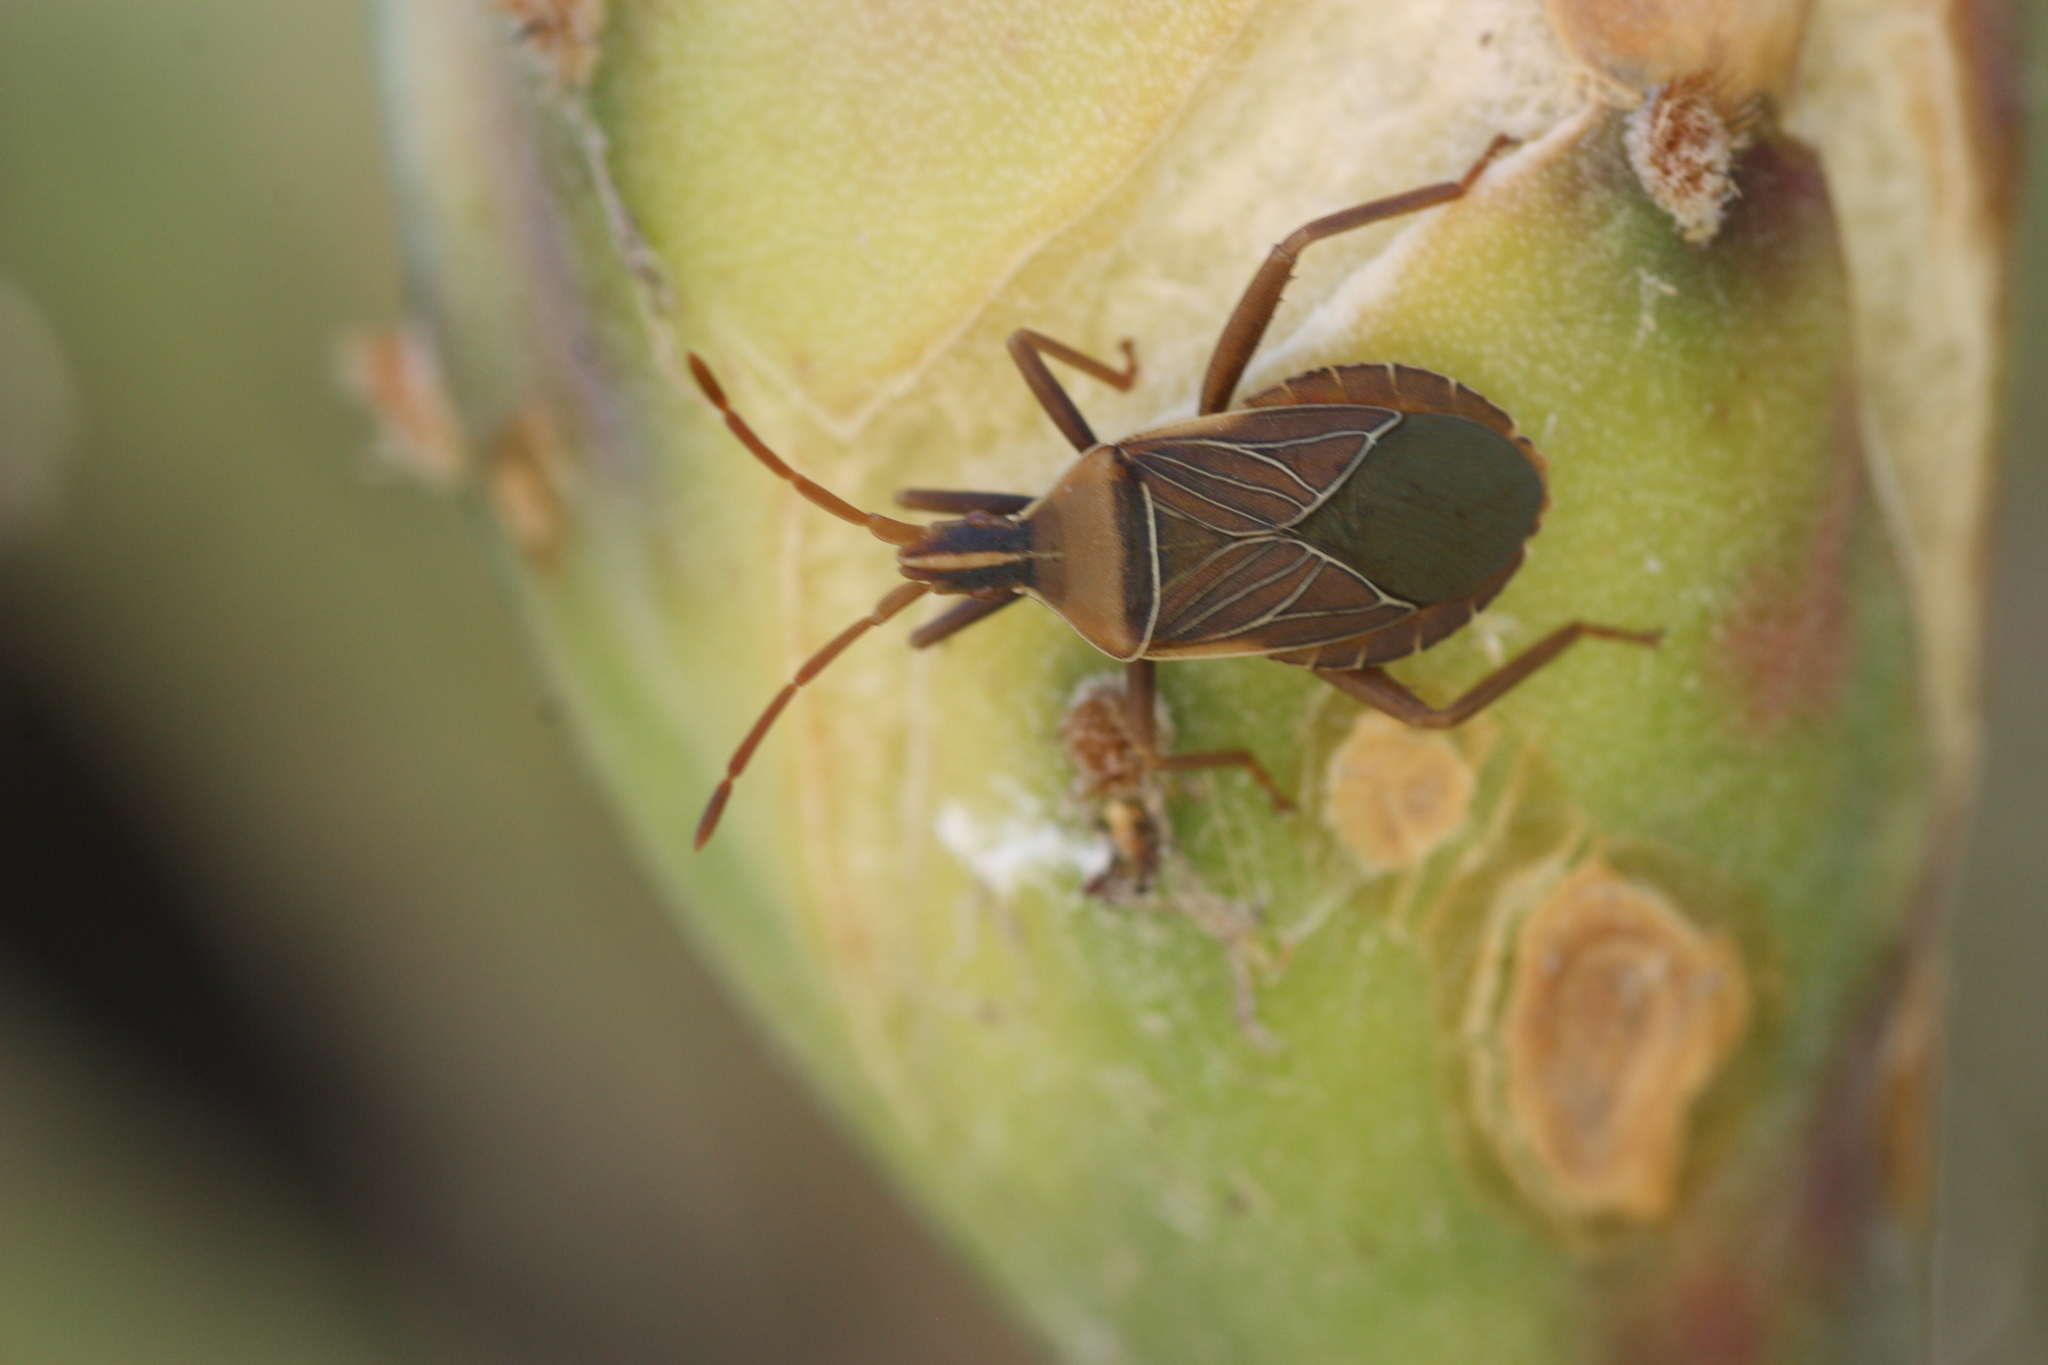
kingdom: Animalia
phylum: Arthropoda
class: Insecta
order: Hemiptera
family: Coreidae
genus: Chelinidea
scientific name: Chelinidea vittiger
